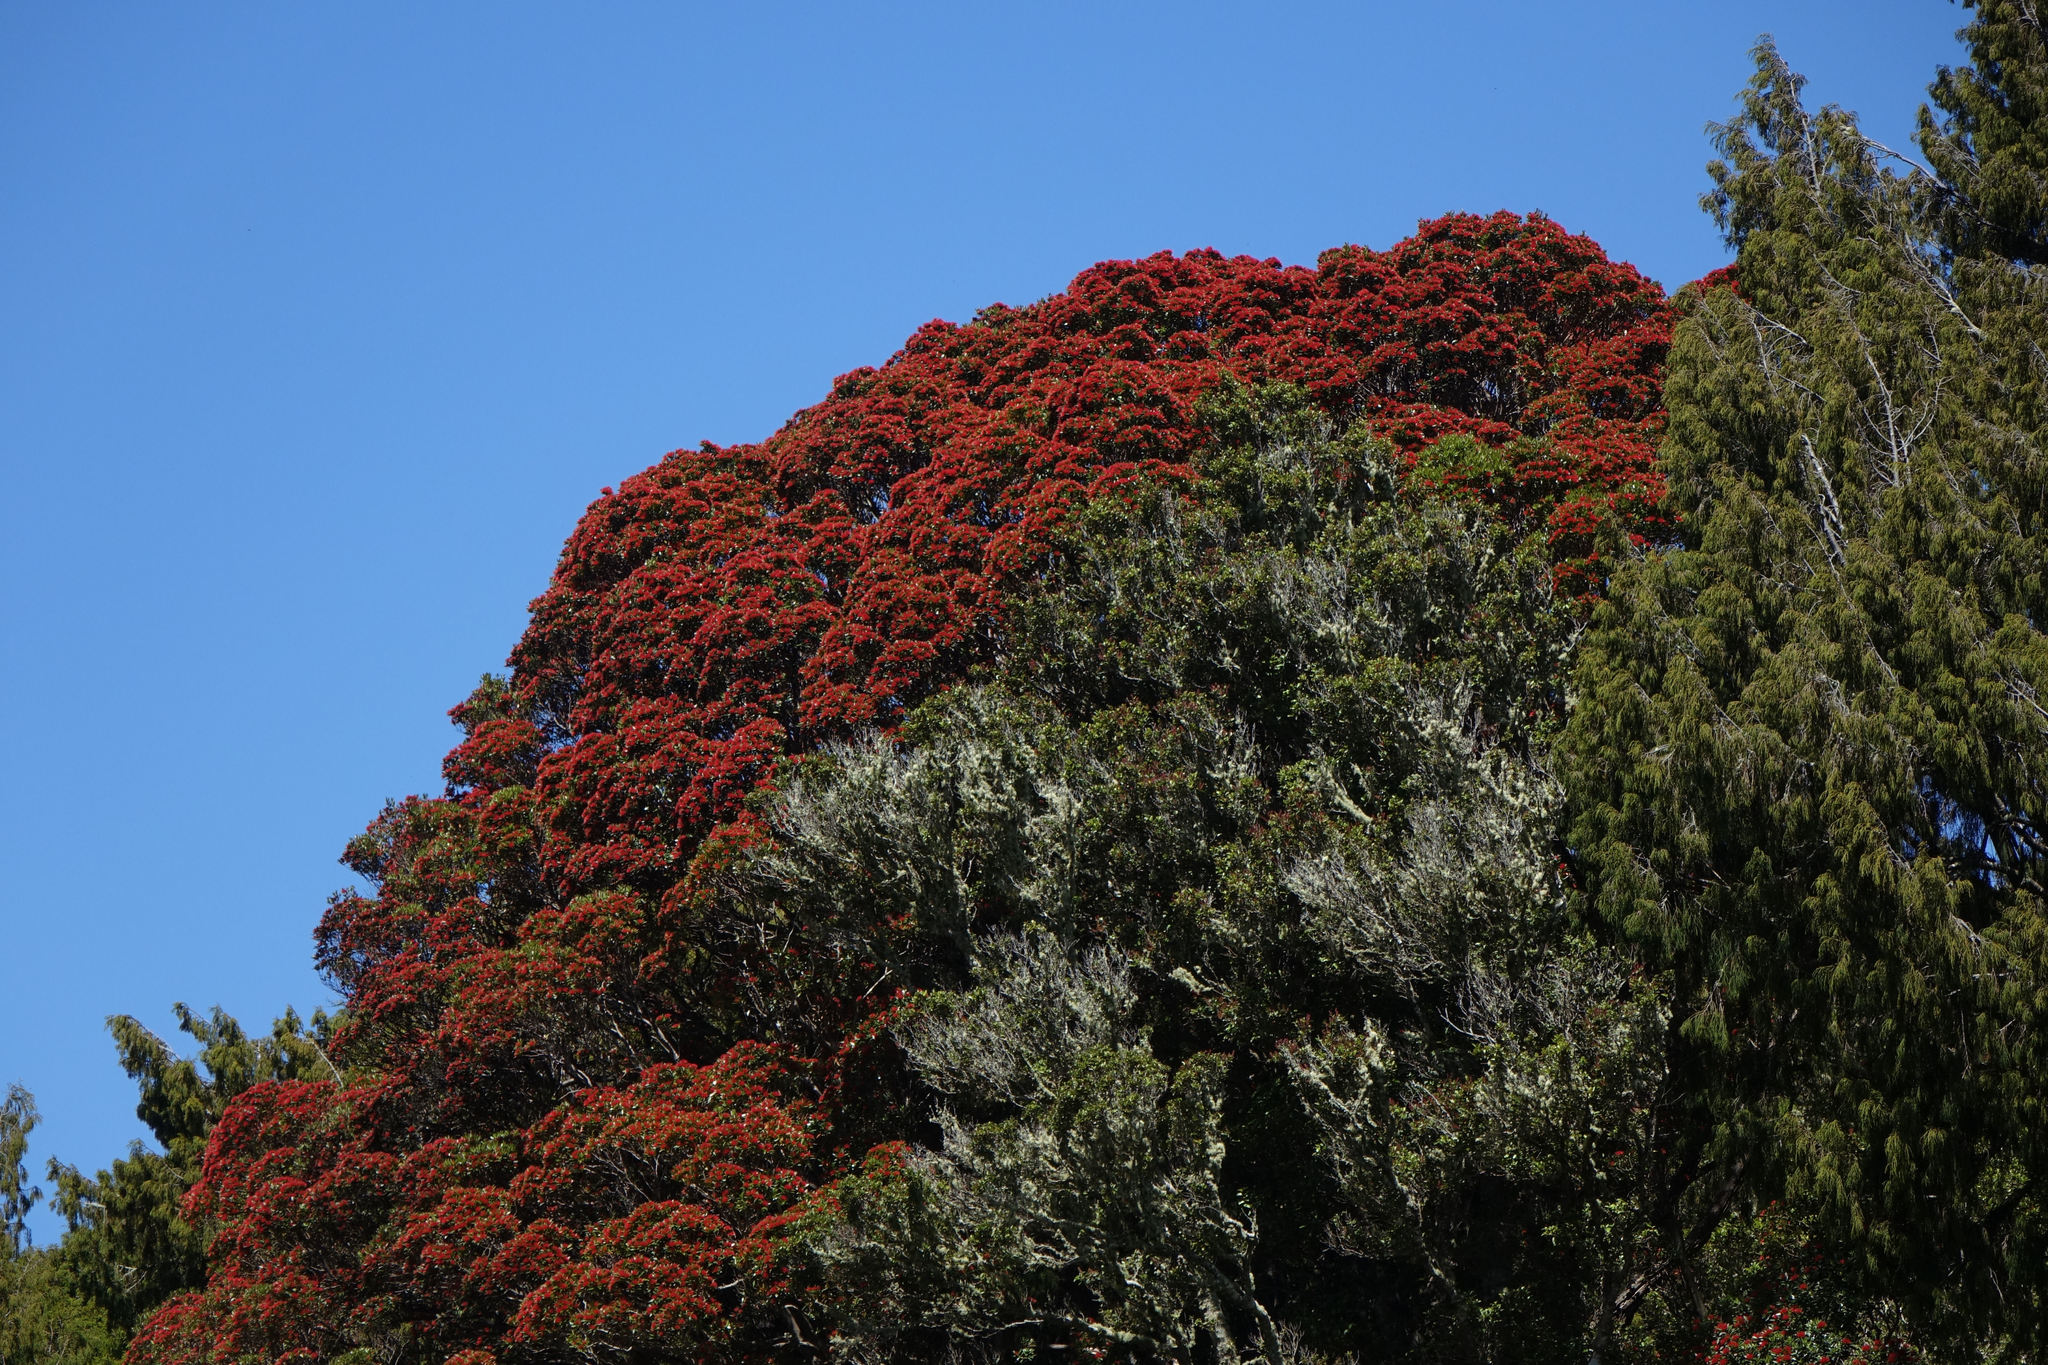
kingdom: Plantae
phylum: Tracheophyta
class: Magnoliopsida
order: Myrtales
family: Myrtaceae
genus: Metrosideros
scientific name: Metrosideros umbellata
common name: Southern rata
